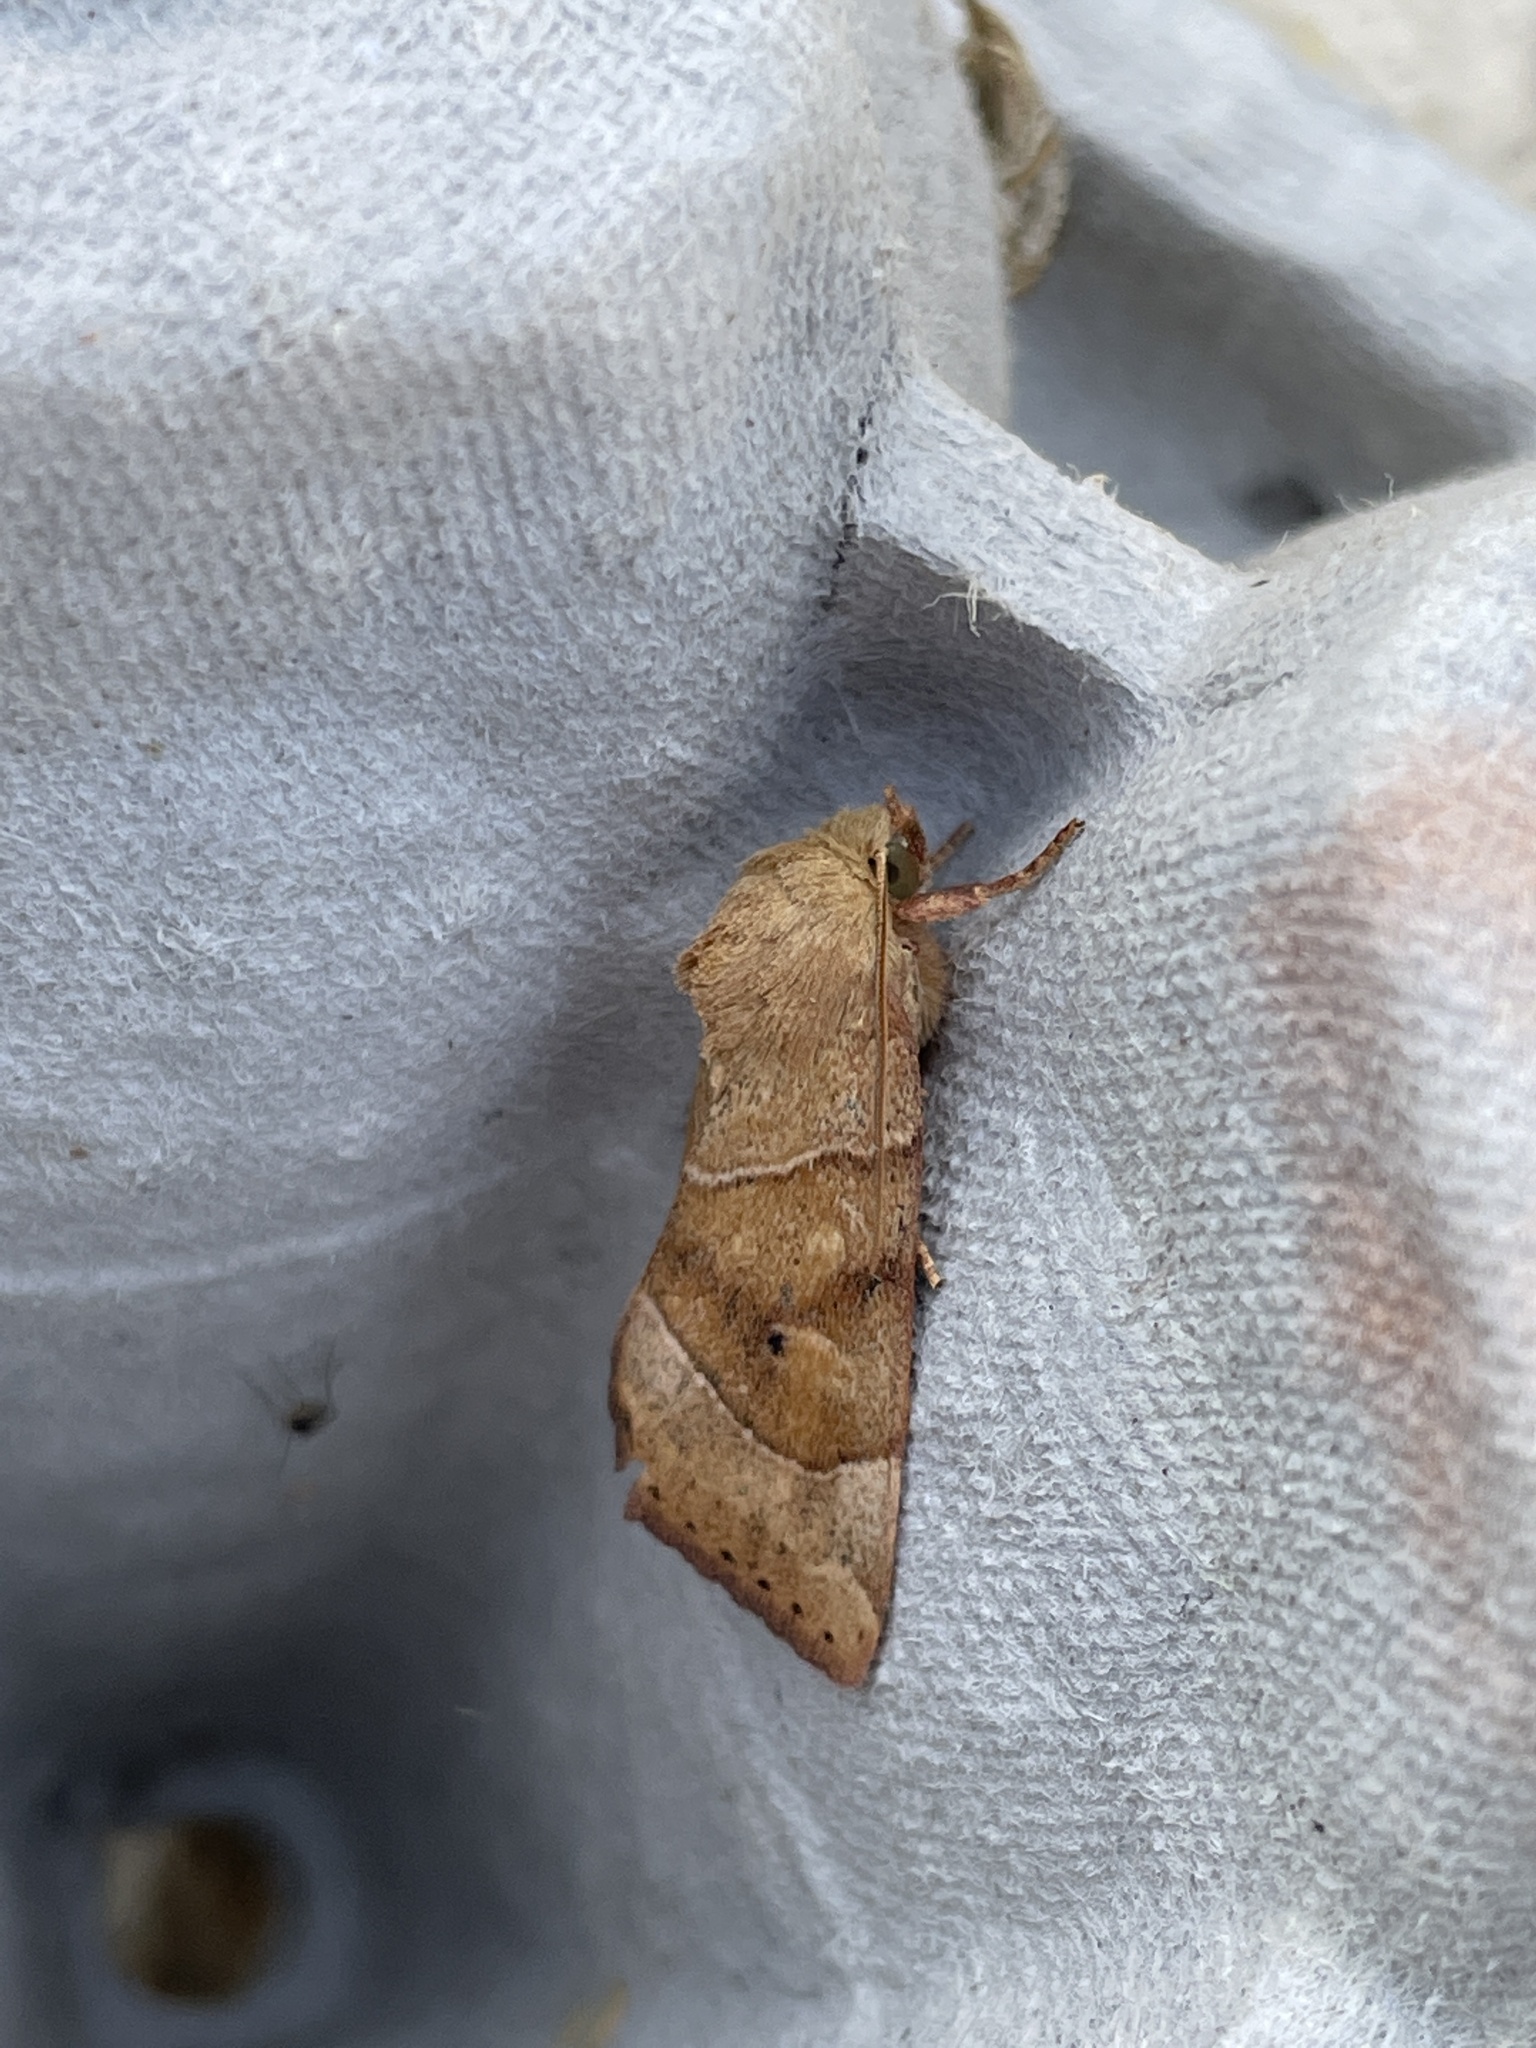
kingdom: Animalia
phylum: Arthropoda
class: Insecta
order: Lepidoptera
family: Noctuidae
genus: Cosmia
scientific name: Cosmia trapezina
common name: Dun-bar
